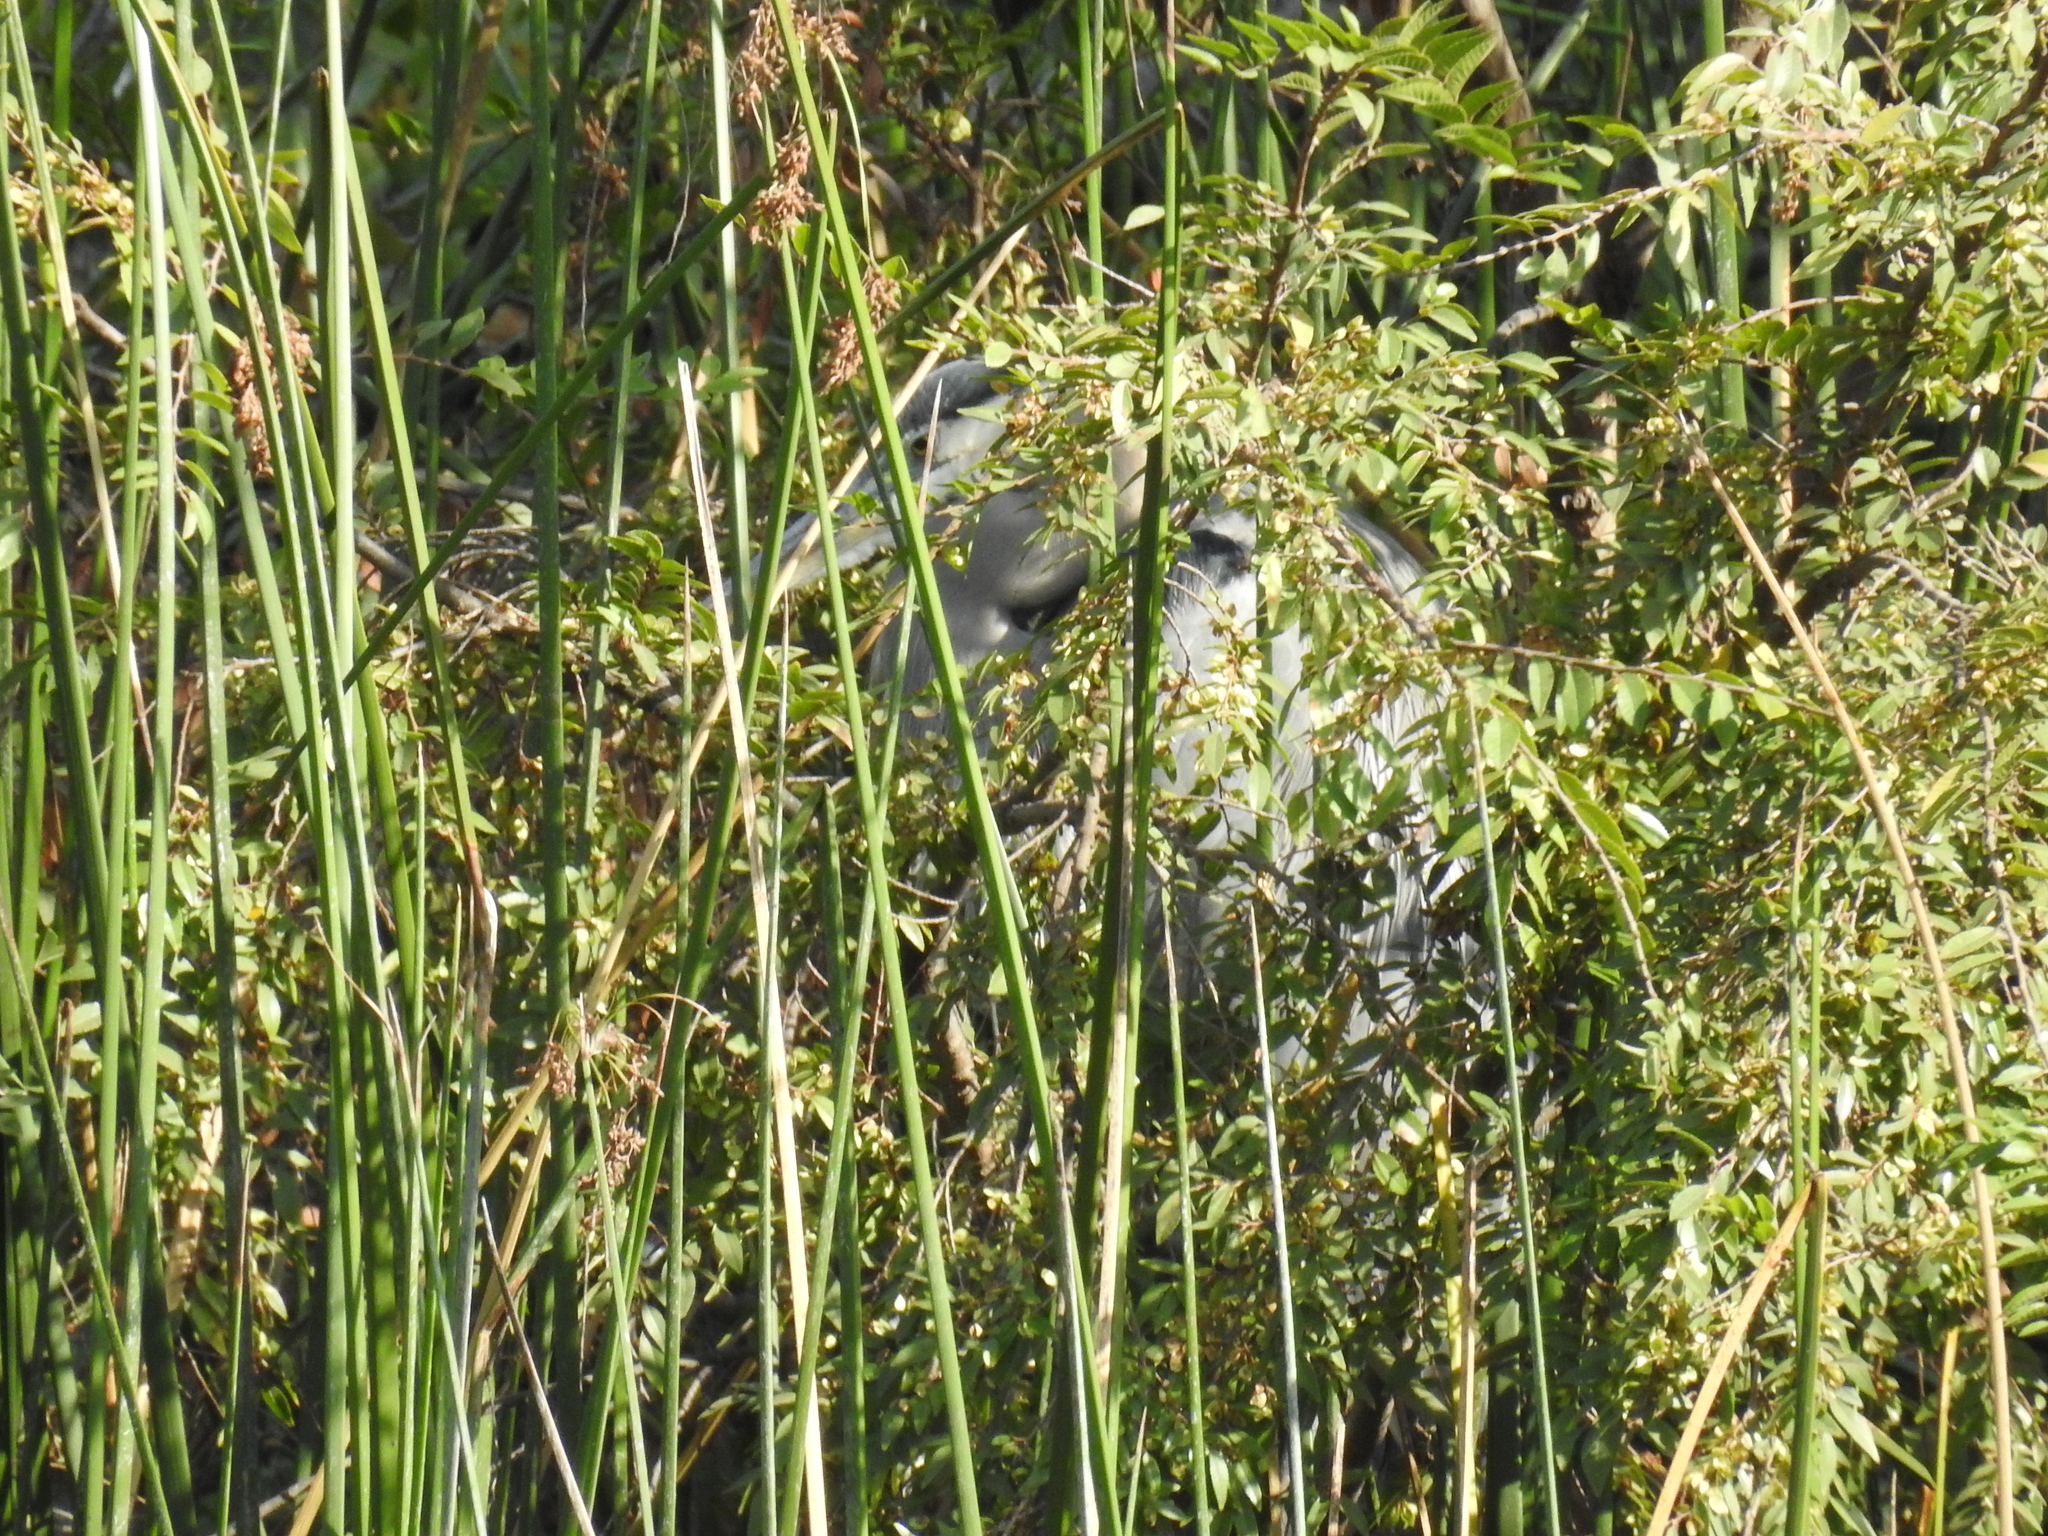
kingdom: Animalia
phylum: Chordata
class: Aves
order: Pelecaniformes
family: Ardeidae
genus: Ardea
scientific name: Ardea herodias
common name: Great blue heron
